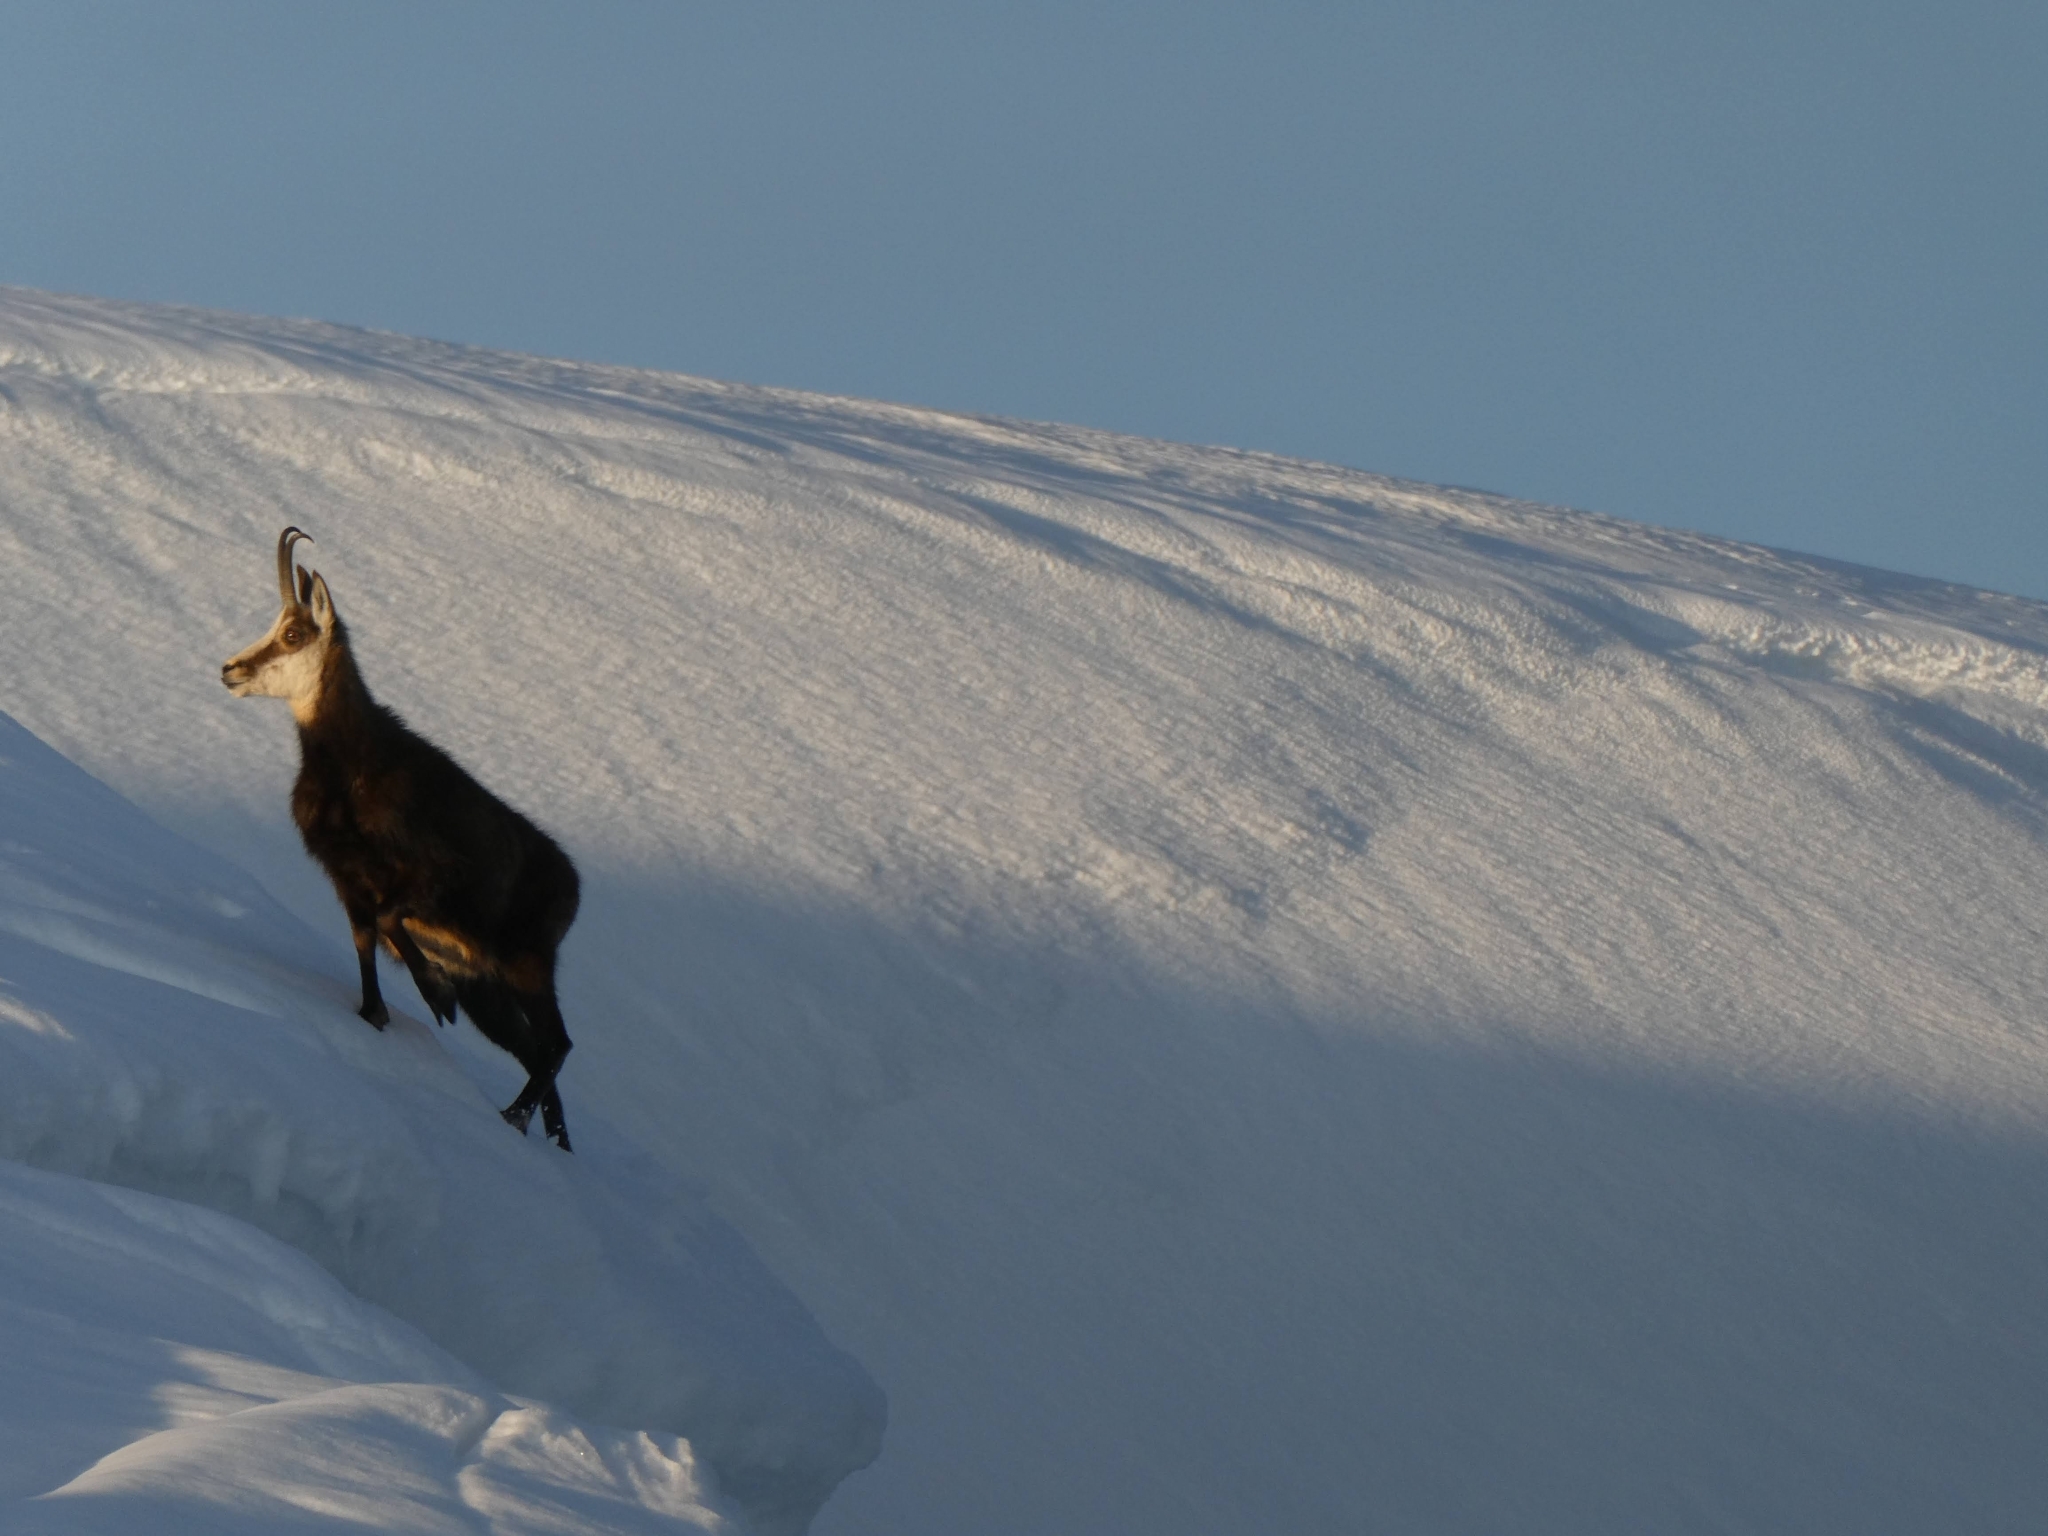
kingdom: Animalia
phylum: Chordata
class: Mammalia
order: Artiodactyla
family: Bovidae
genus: Rupicapra
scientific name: Rupicapra rupicapra
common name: Chamois
